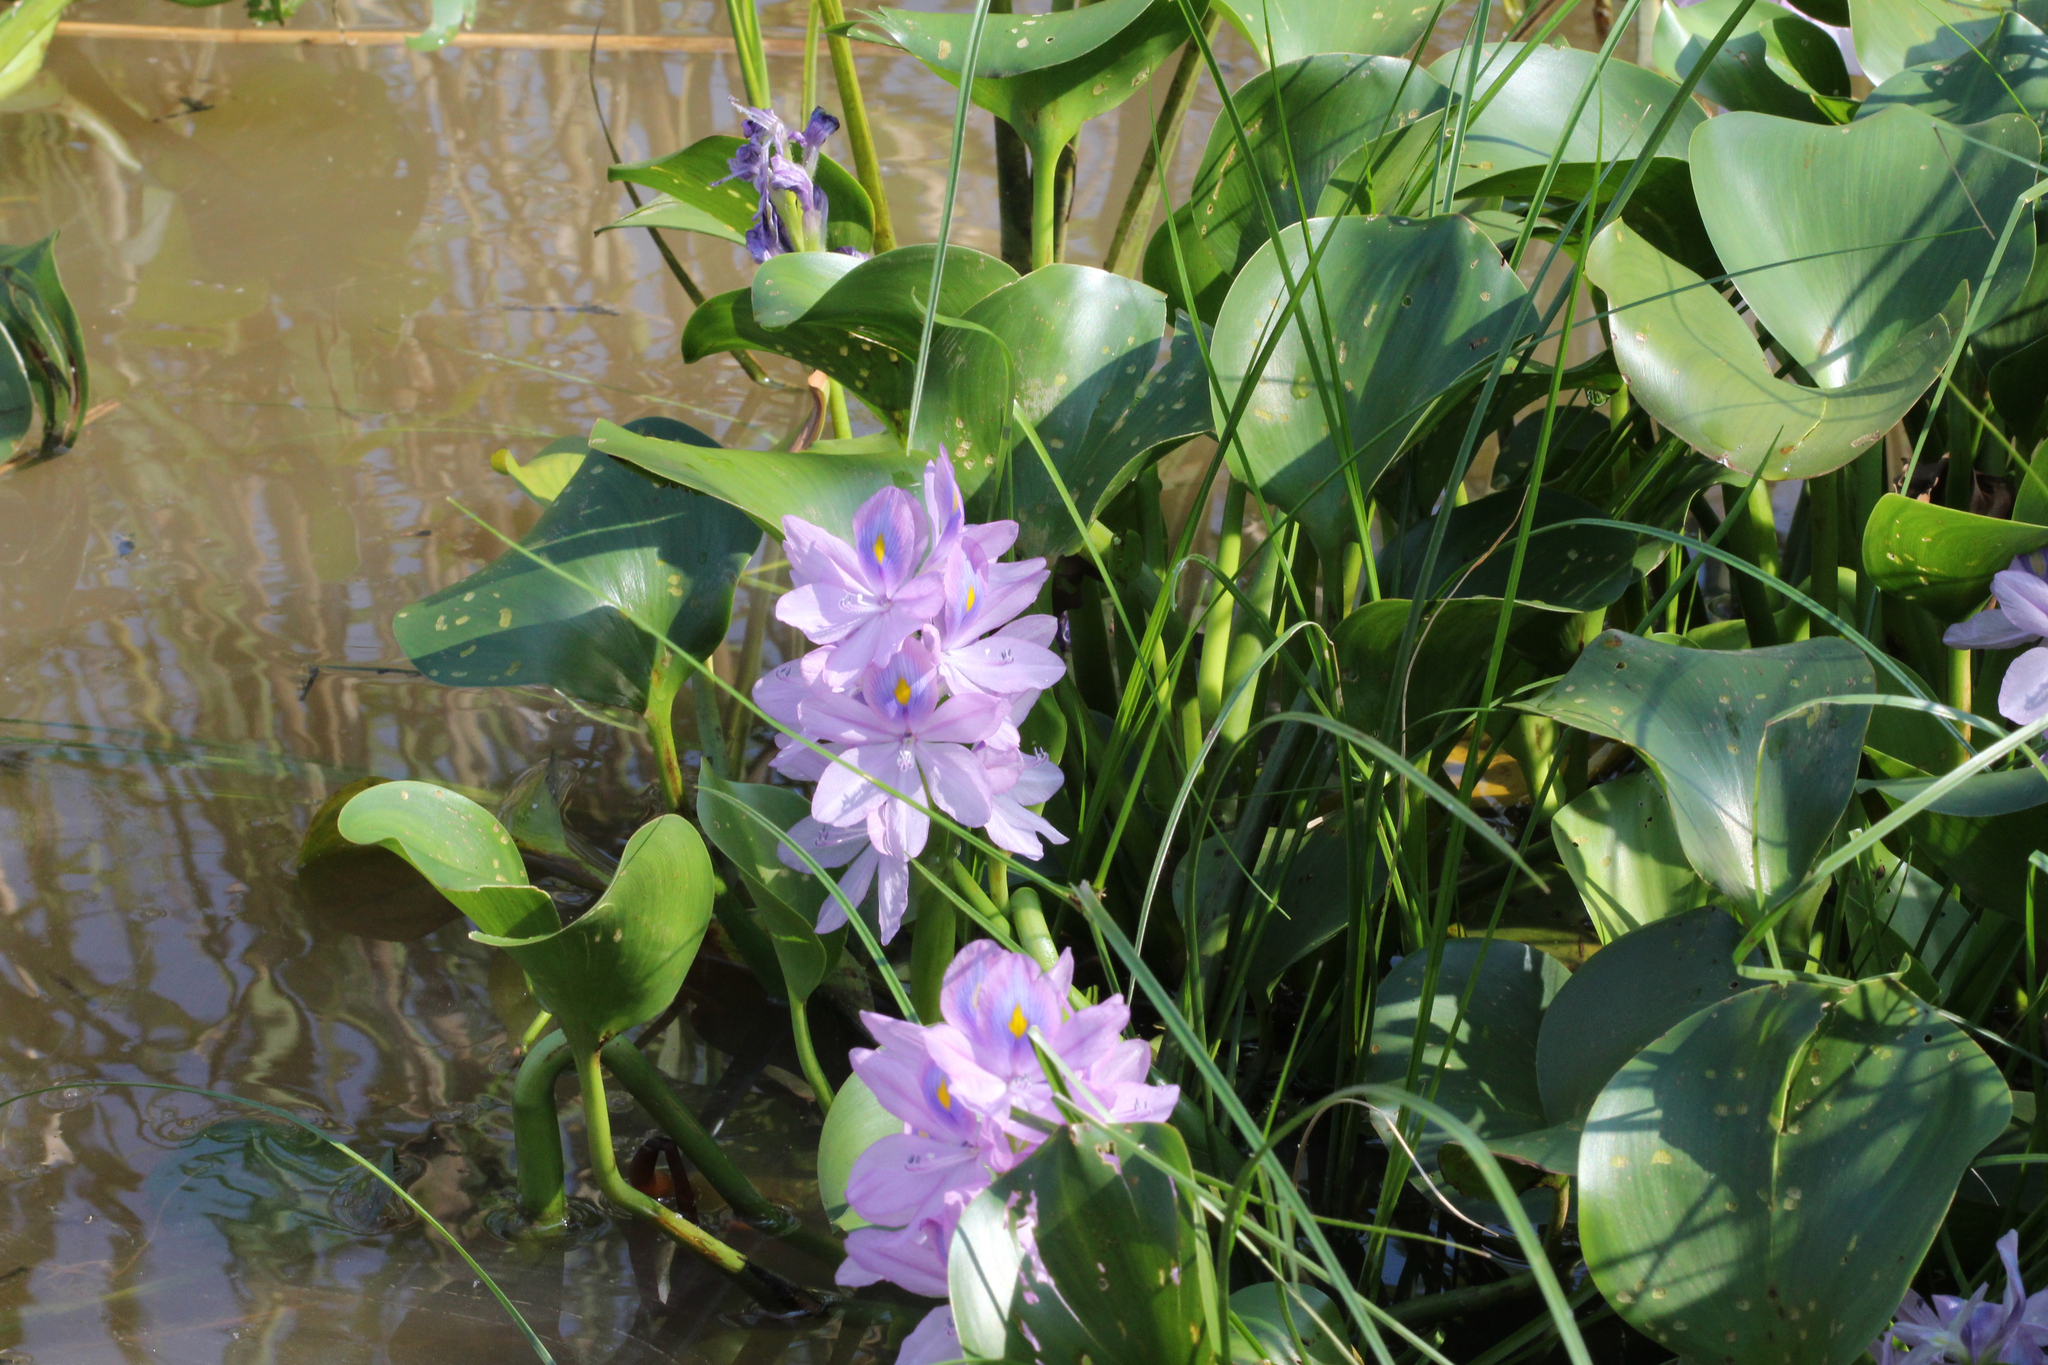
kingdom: Plantae
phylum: Tracheophyta
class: Liliopsida
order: Commelinales
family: Pontederiaceae
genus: Pontederia
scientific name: Pontederia crassipes
